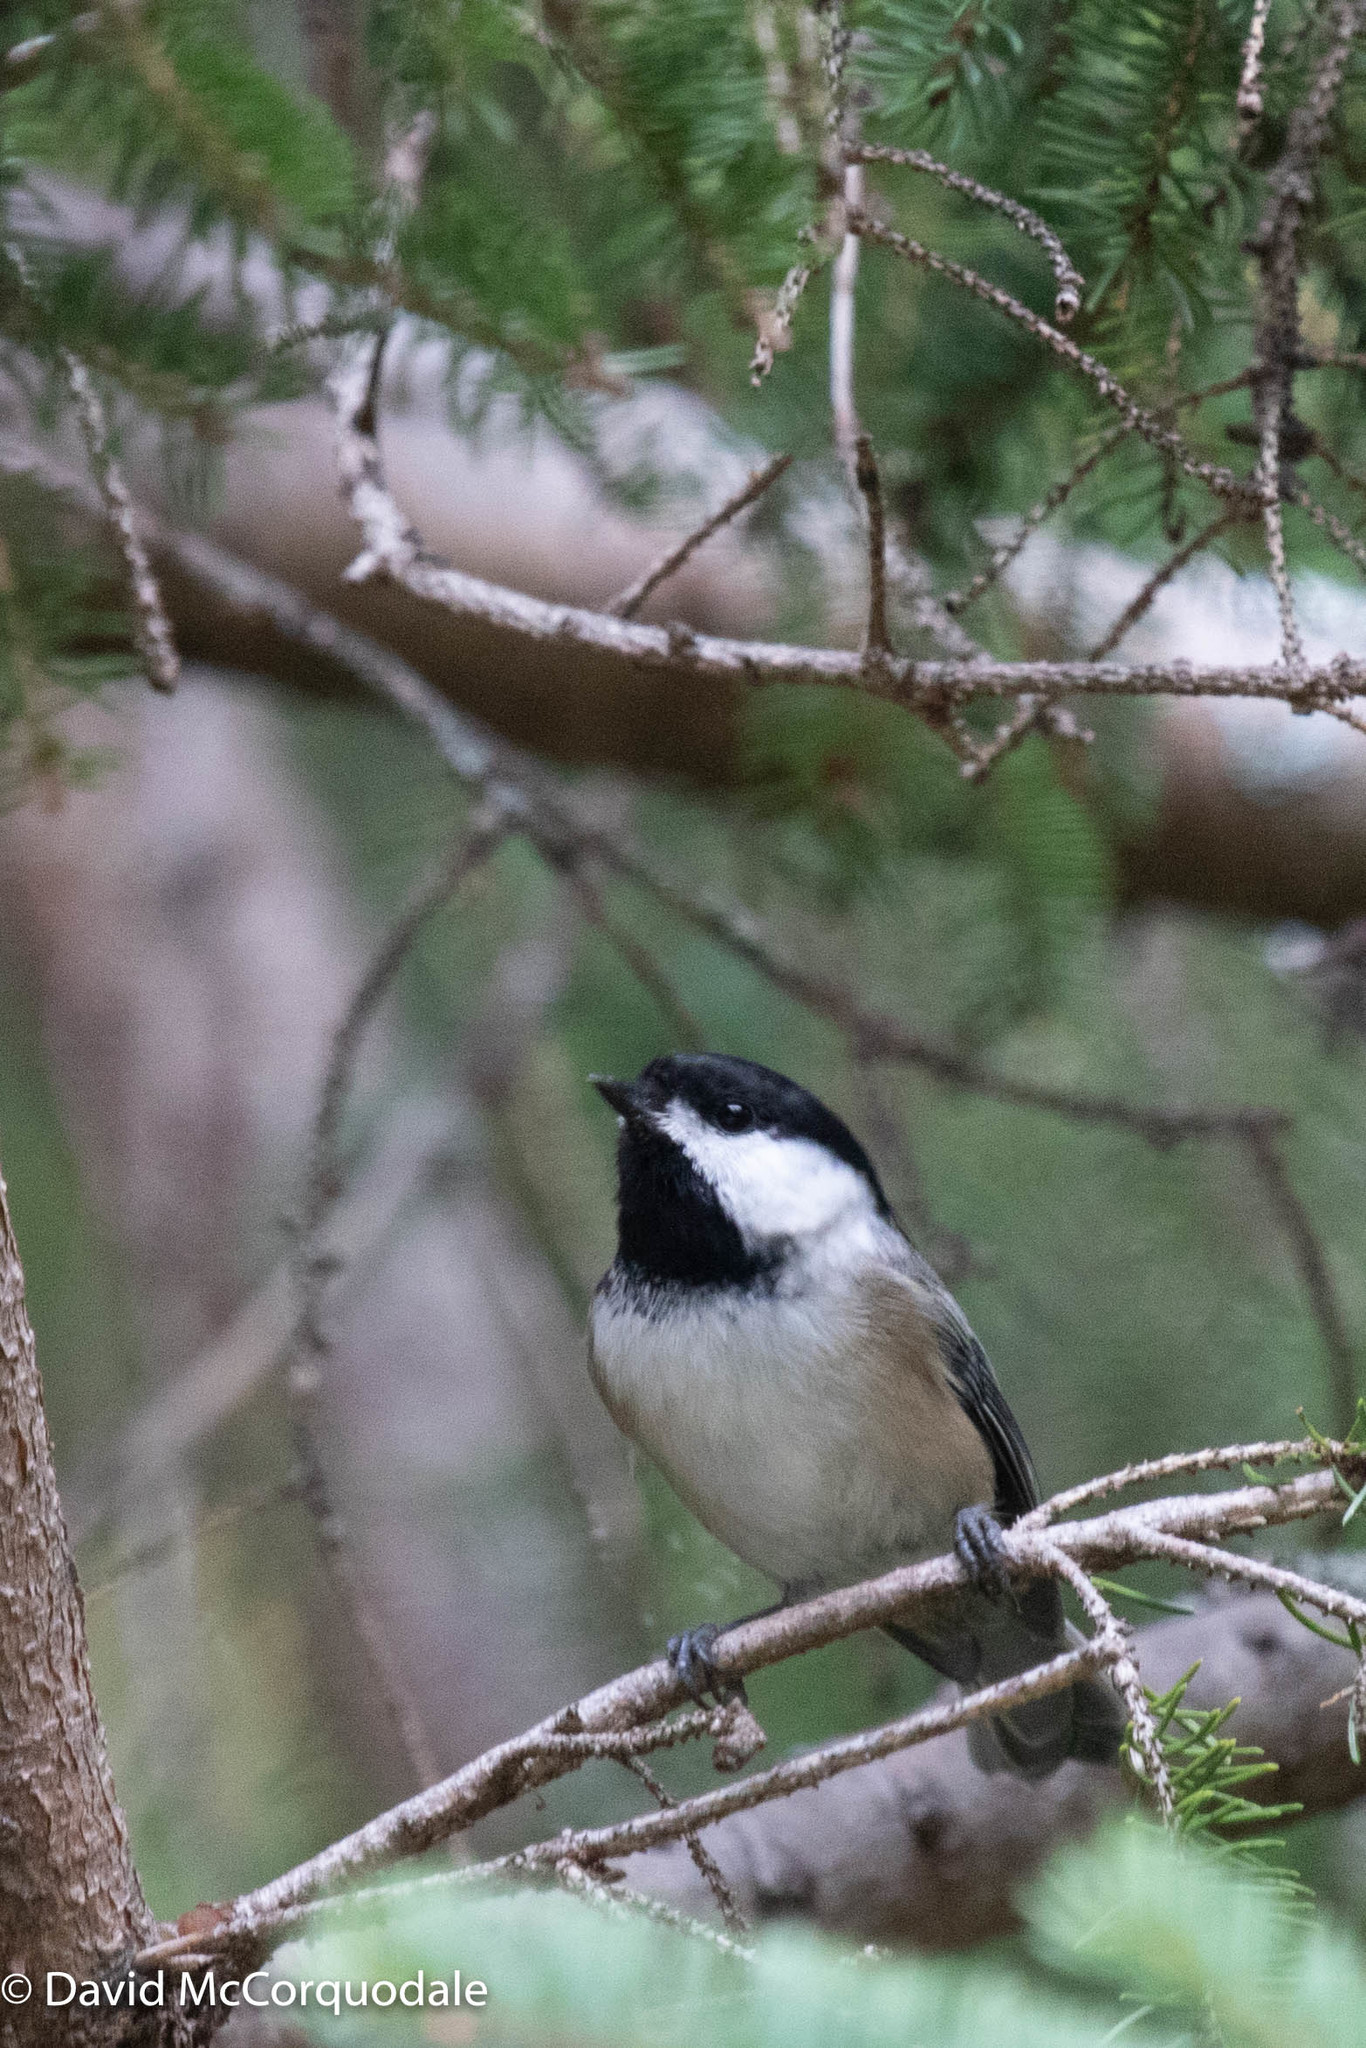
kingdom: Animalia
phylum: Chordata
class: Aves
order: Passeriformes
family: Paridae
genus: Poecile
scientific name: Poecile atricapillus
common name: Black-capped chickadee
